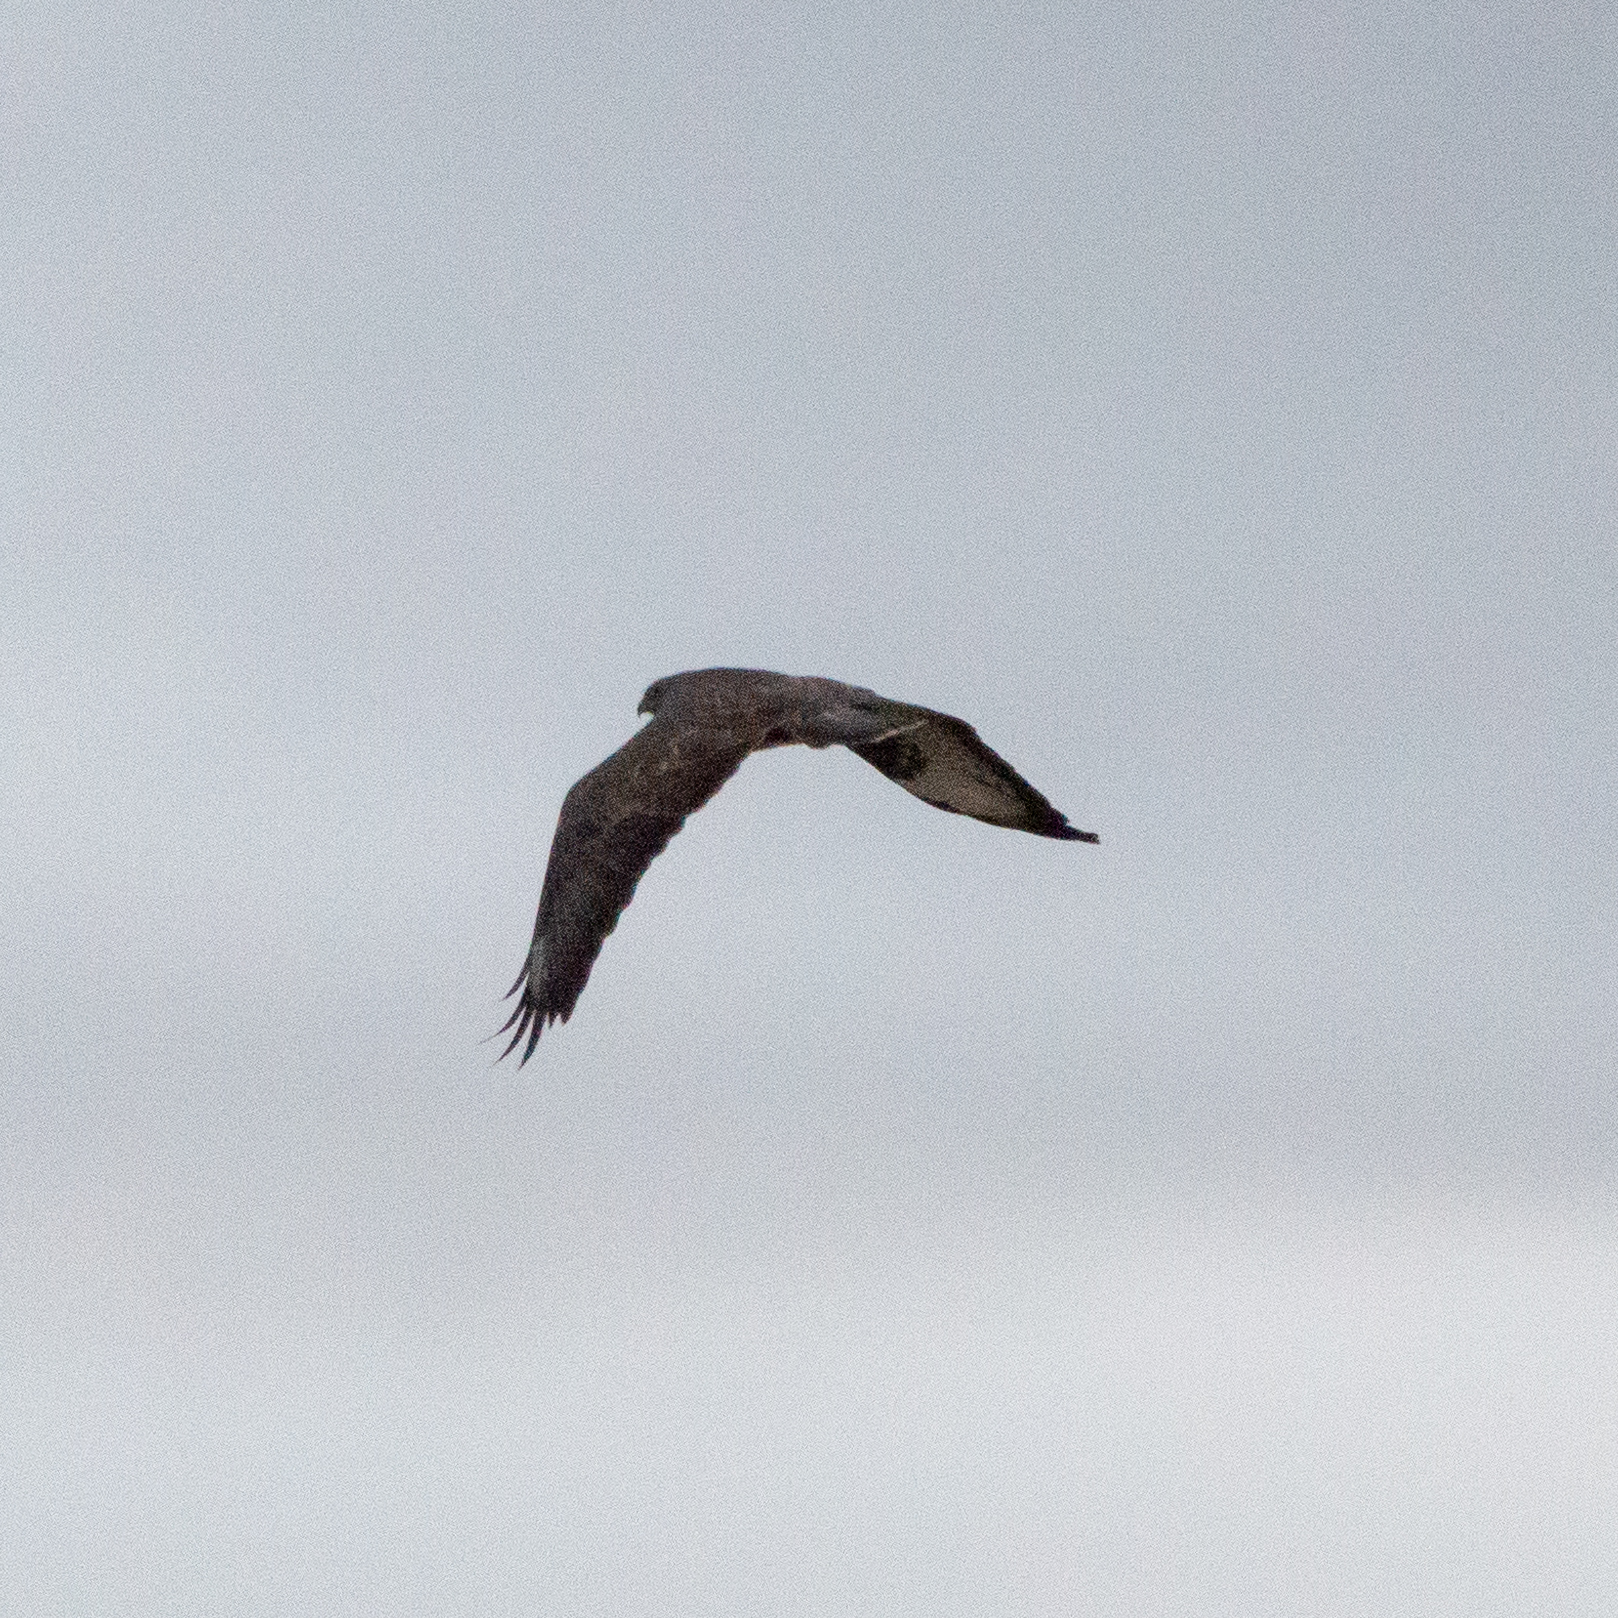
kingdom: Animalia
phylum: Chordata
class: Aves
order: Accipitriformes
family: Accipitridae
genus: Buteo
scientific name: Buteo buteo
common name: Common buzzard
